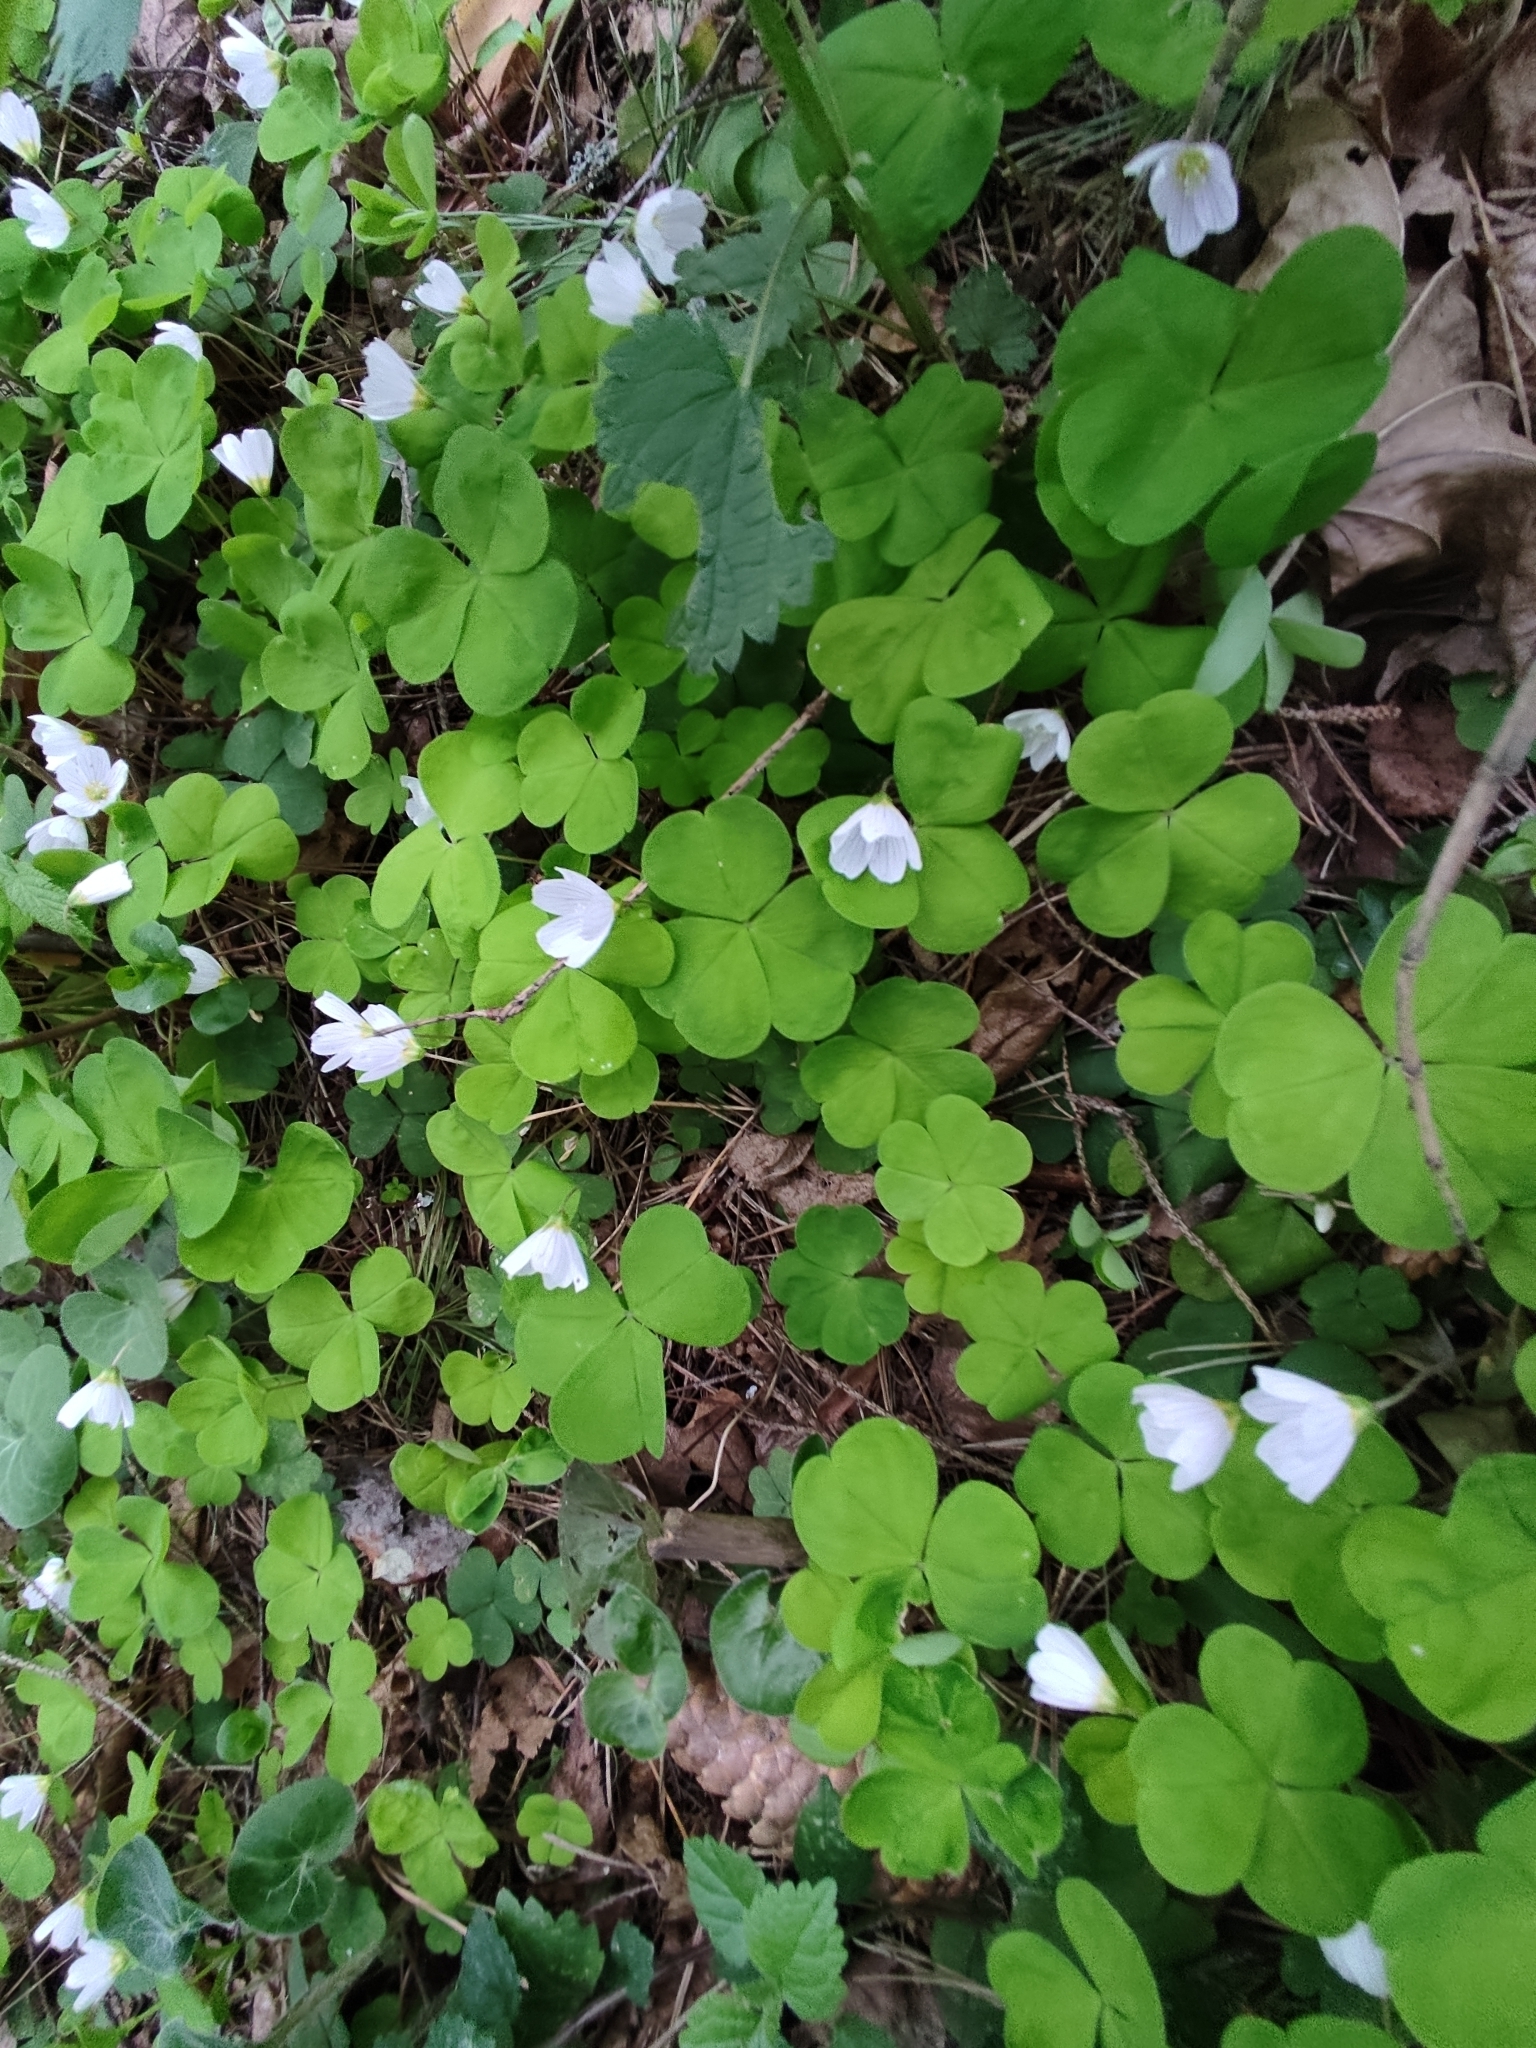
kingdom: Plantae
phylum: Tracheophyta
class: Magnoliopsida
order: Oxalidales
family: Oxalidaceae
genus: Oxalis
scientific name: Oxalis acetosella
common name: Wood-sorrel
